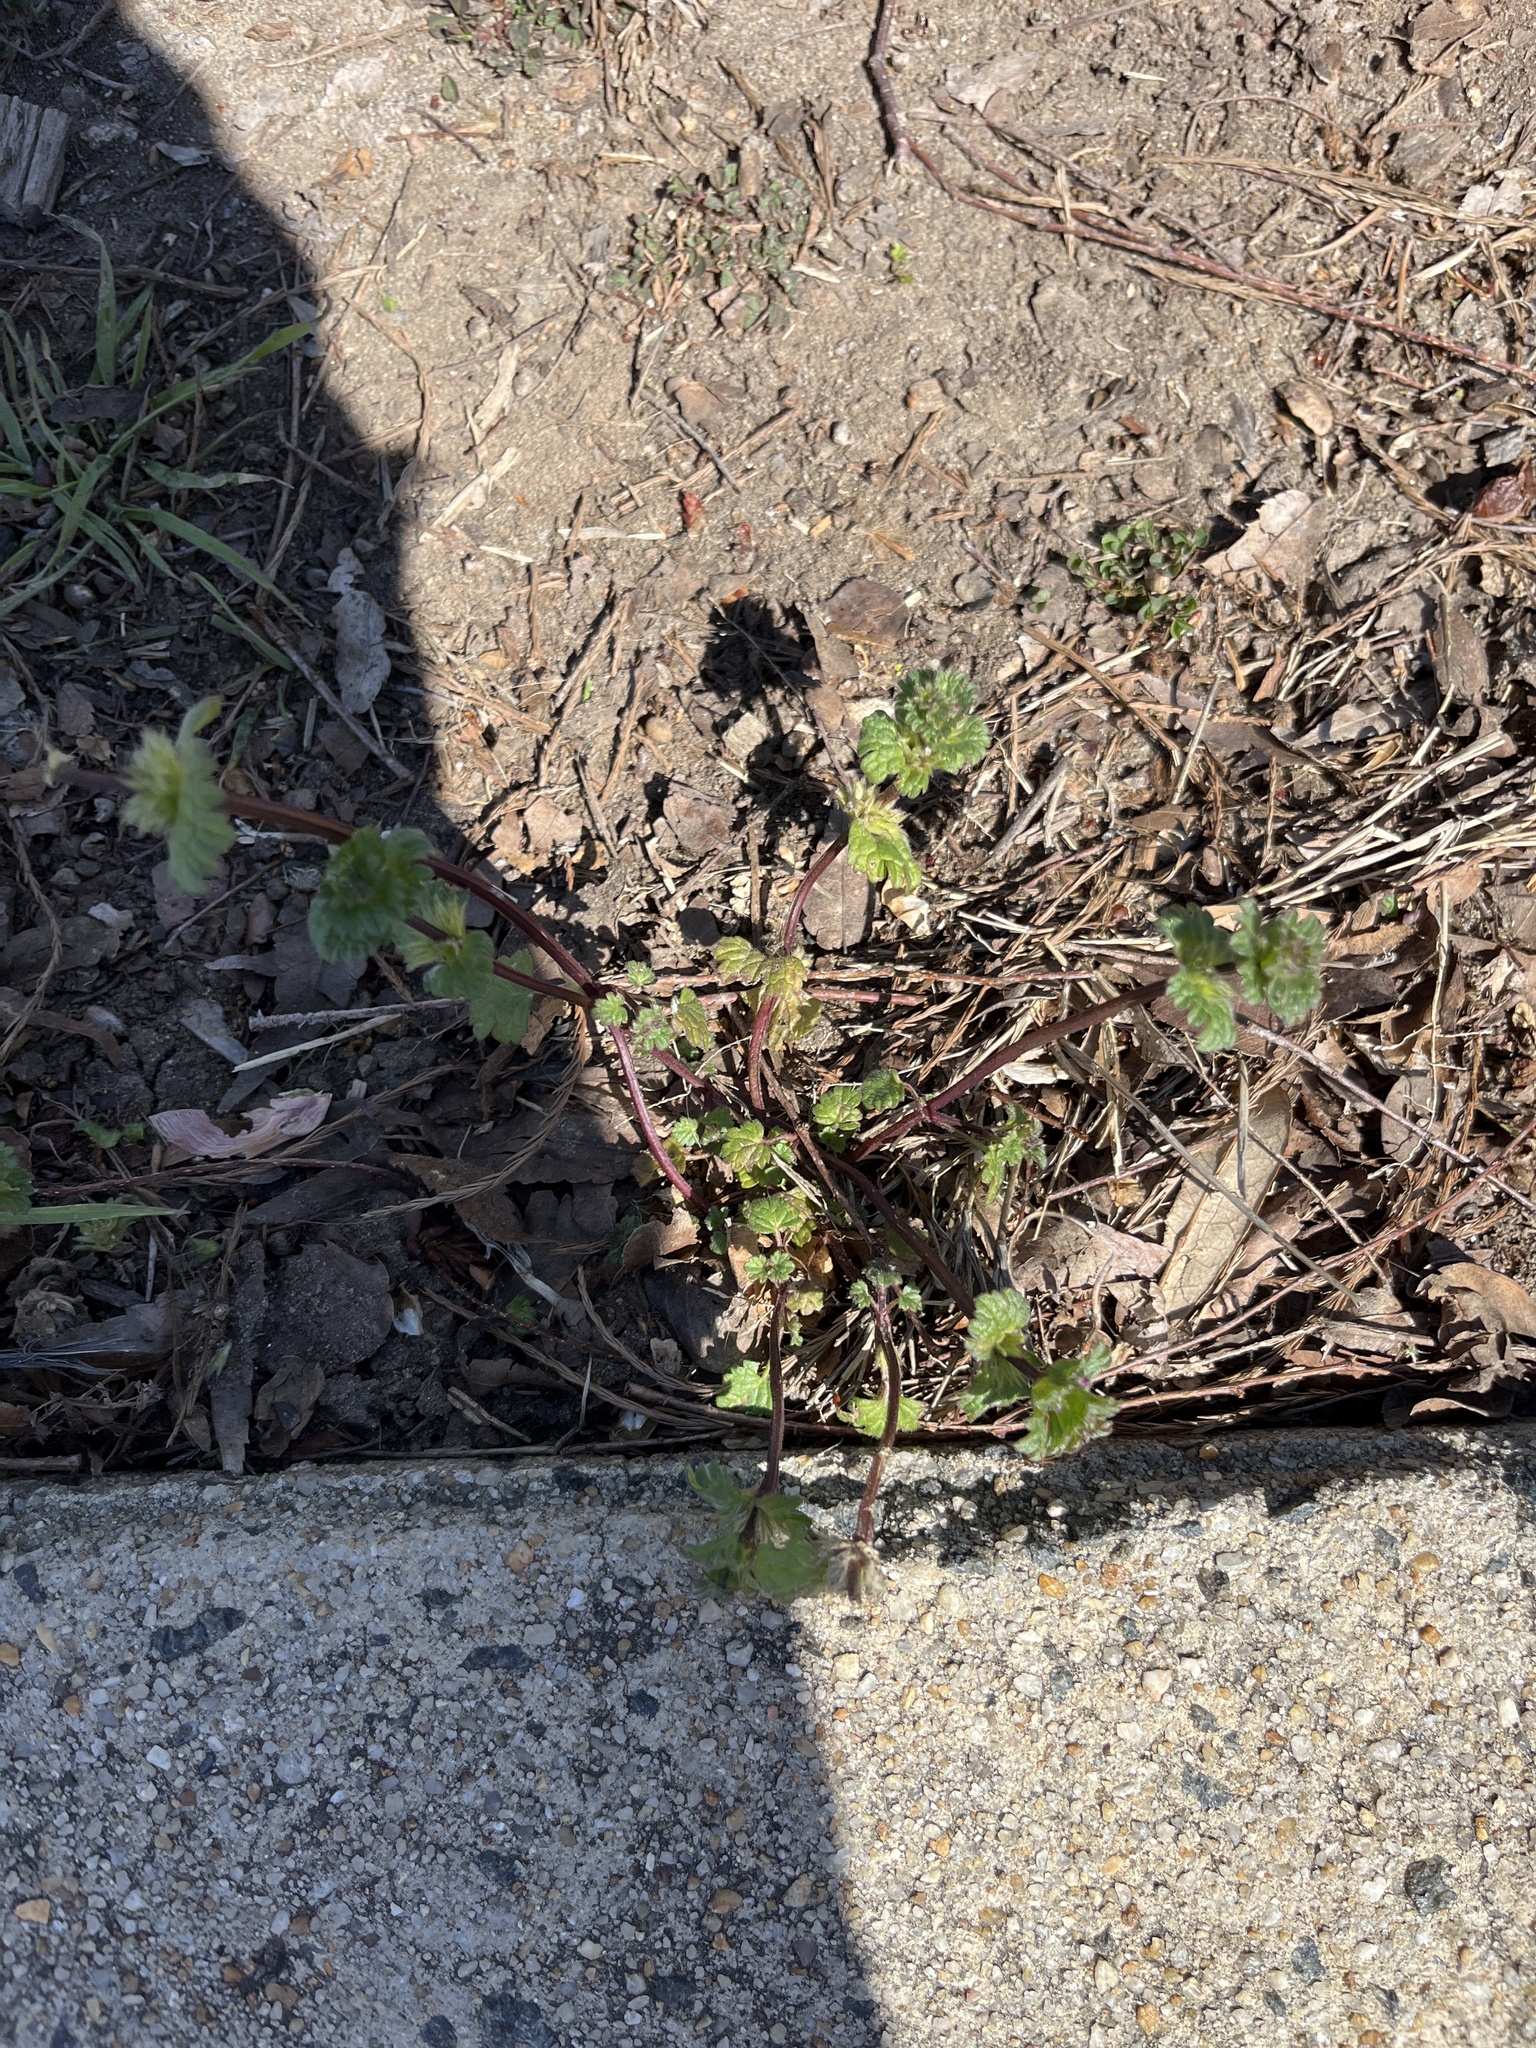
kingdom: Plantae
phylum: Tracheophyta
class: Magnoliopsida
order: Lamiales
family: Lamiaceae
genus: Lamium
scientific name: Lamium amplexicaule
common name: Henbit dead-nettle
